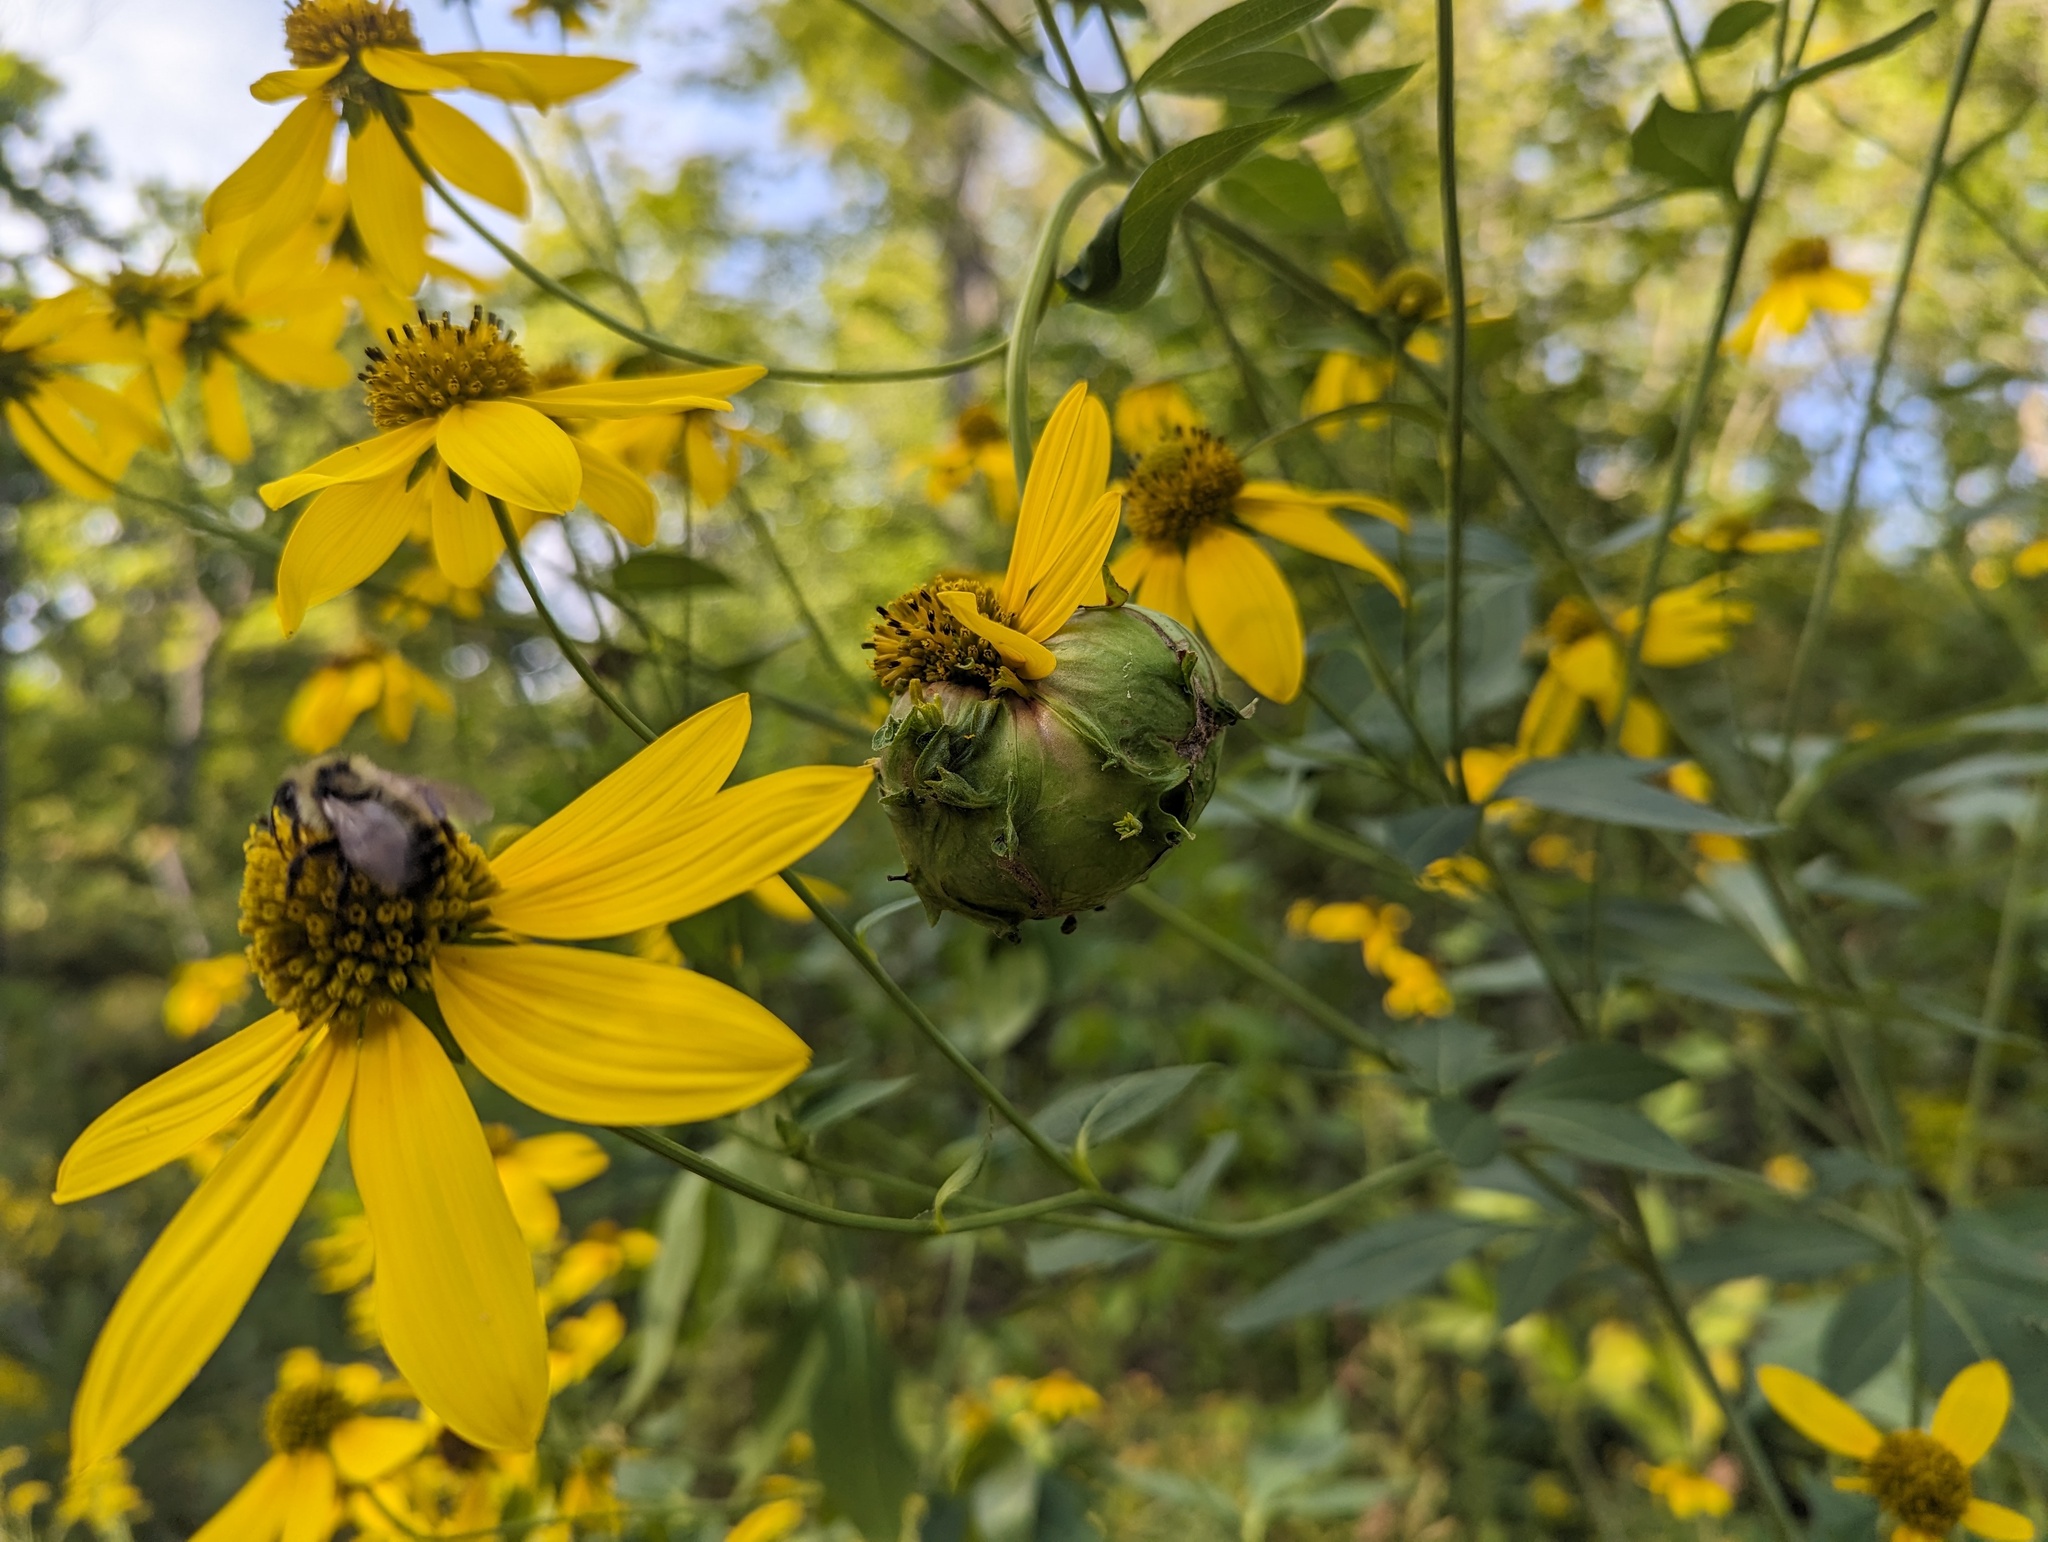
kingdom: Animalia
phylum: Arthropoda
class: Insecta
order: Diptera
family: Cecidomyiidae
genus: Asphondylia
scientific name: Asphondylia rudbeckiaeconspicua
